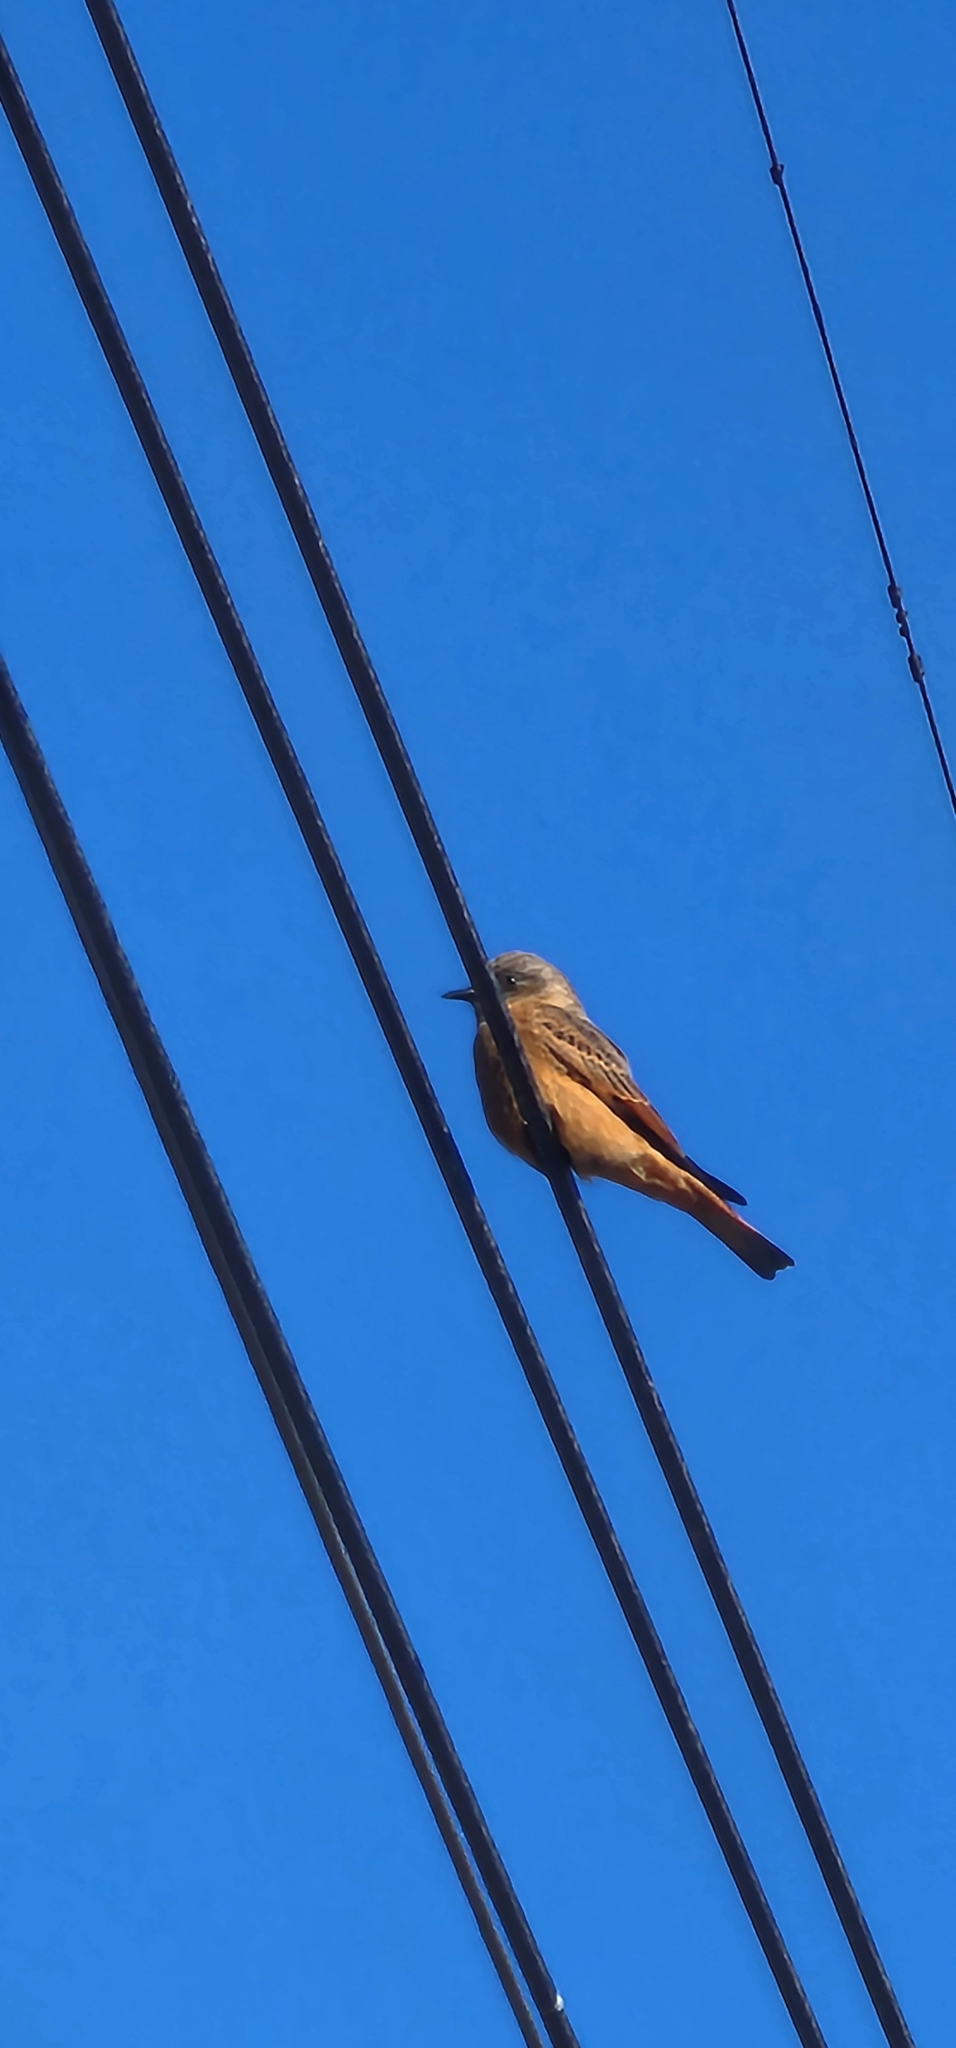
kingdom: Animalia
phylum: Chordata
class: Aves
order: Passeriformes
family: Tyrannidae
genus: Hirundinea
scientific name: Hirundinea ferruginea
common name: Cliff flycatcher
